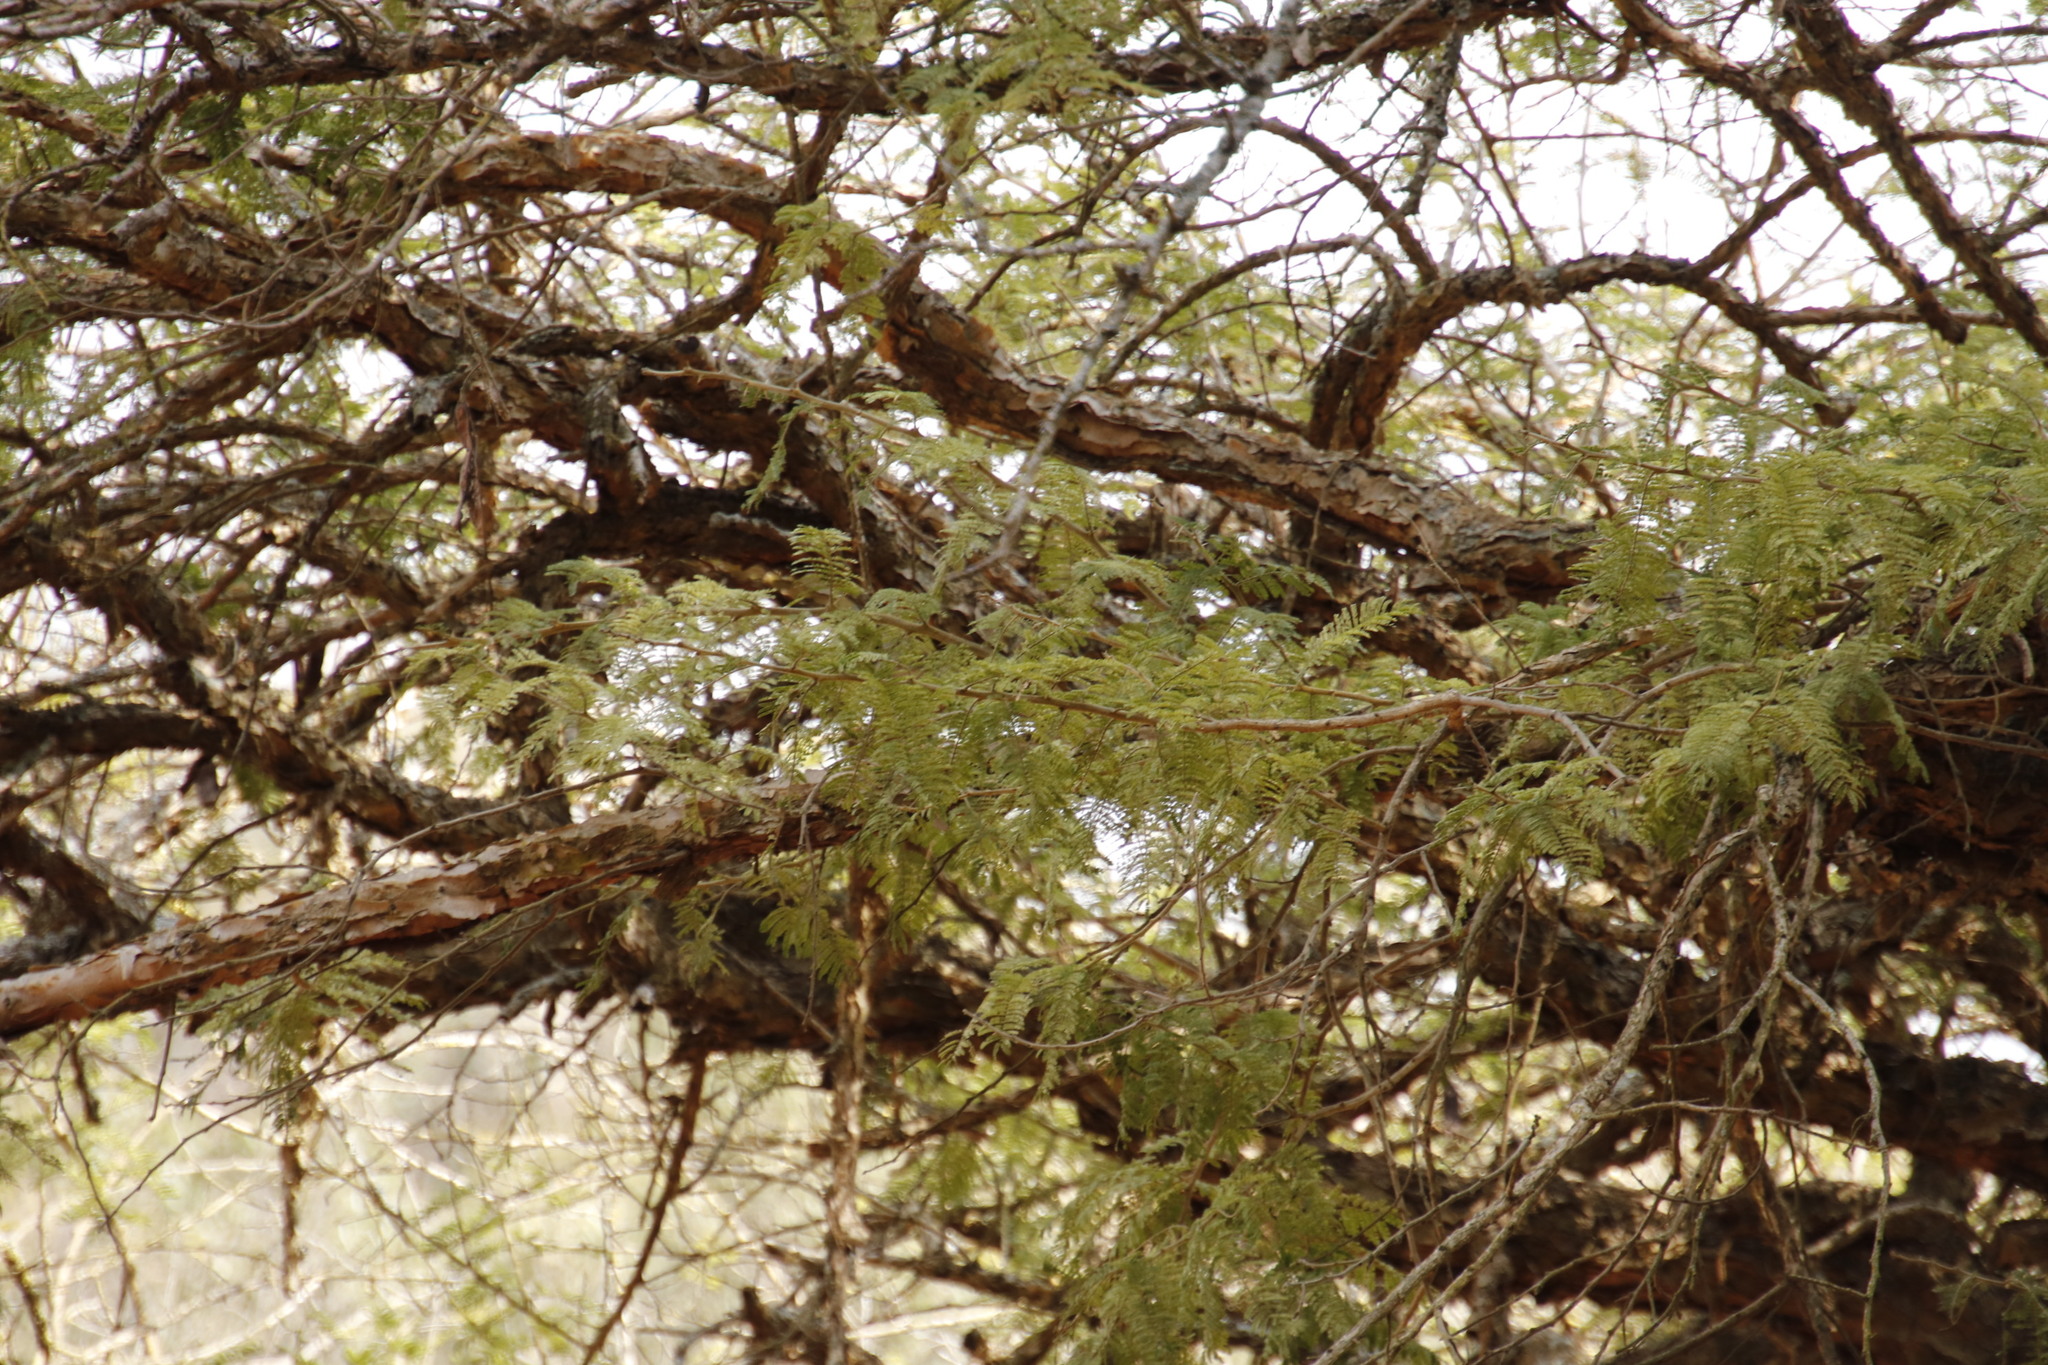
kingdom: Plantae
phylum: Tracheophyta
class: Magnoliopsida
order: Fabales
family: Fabaceae
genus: Vachellia
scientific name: Vachellia sieberiana
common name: Flat-topped thorn
